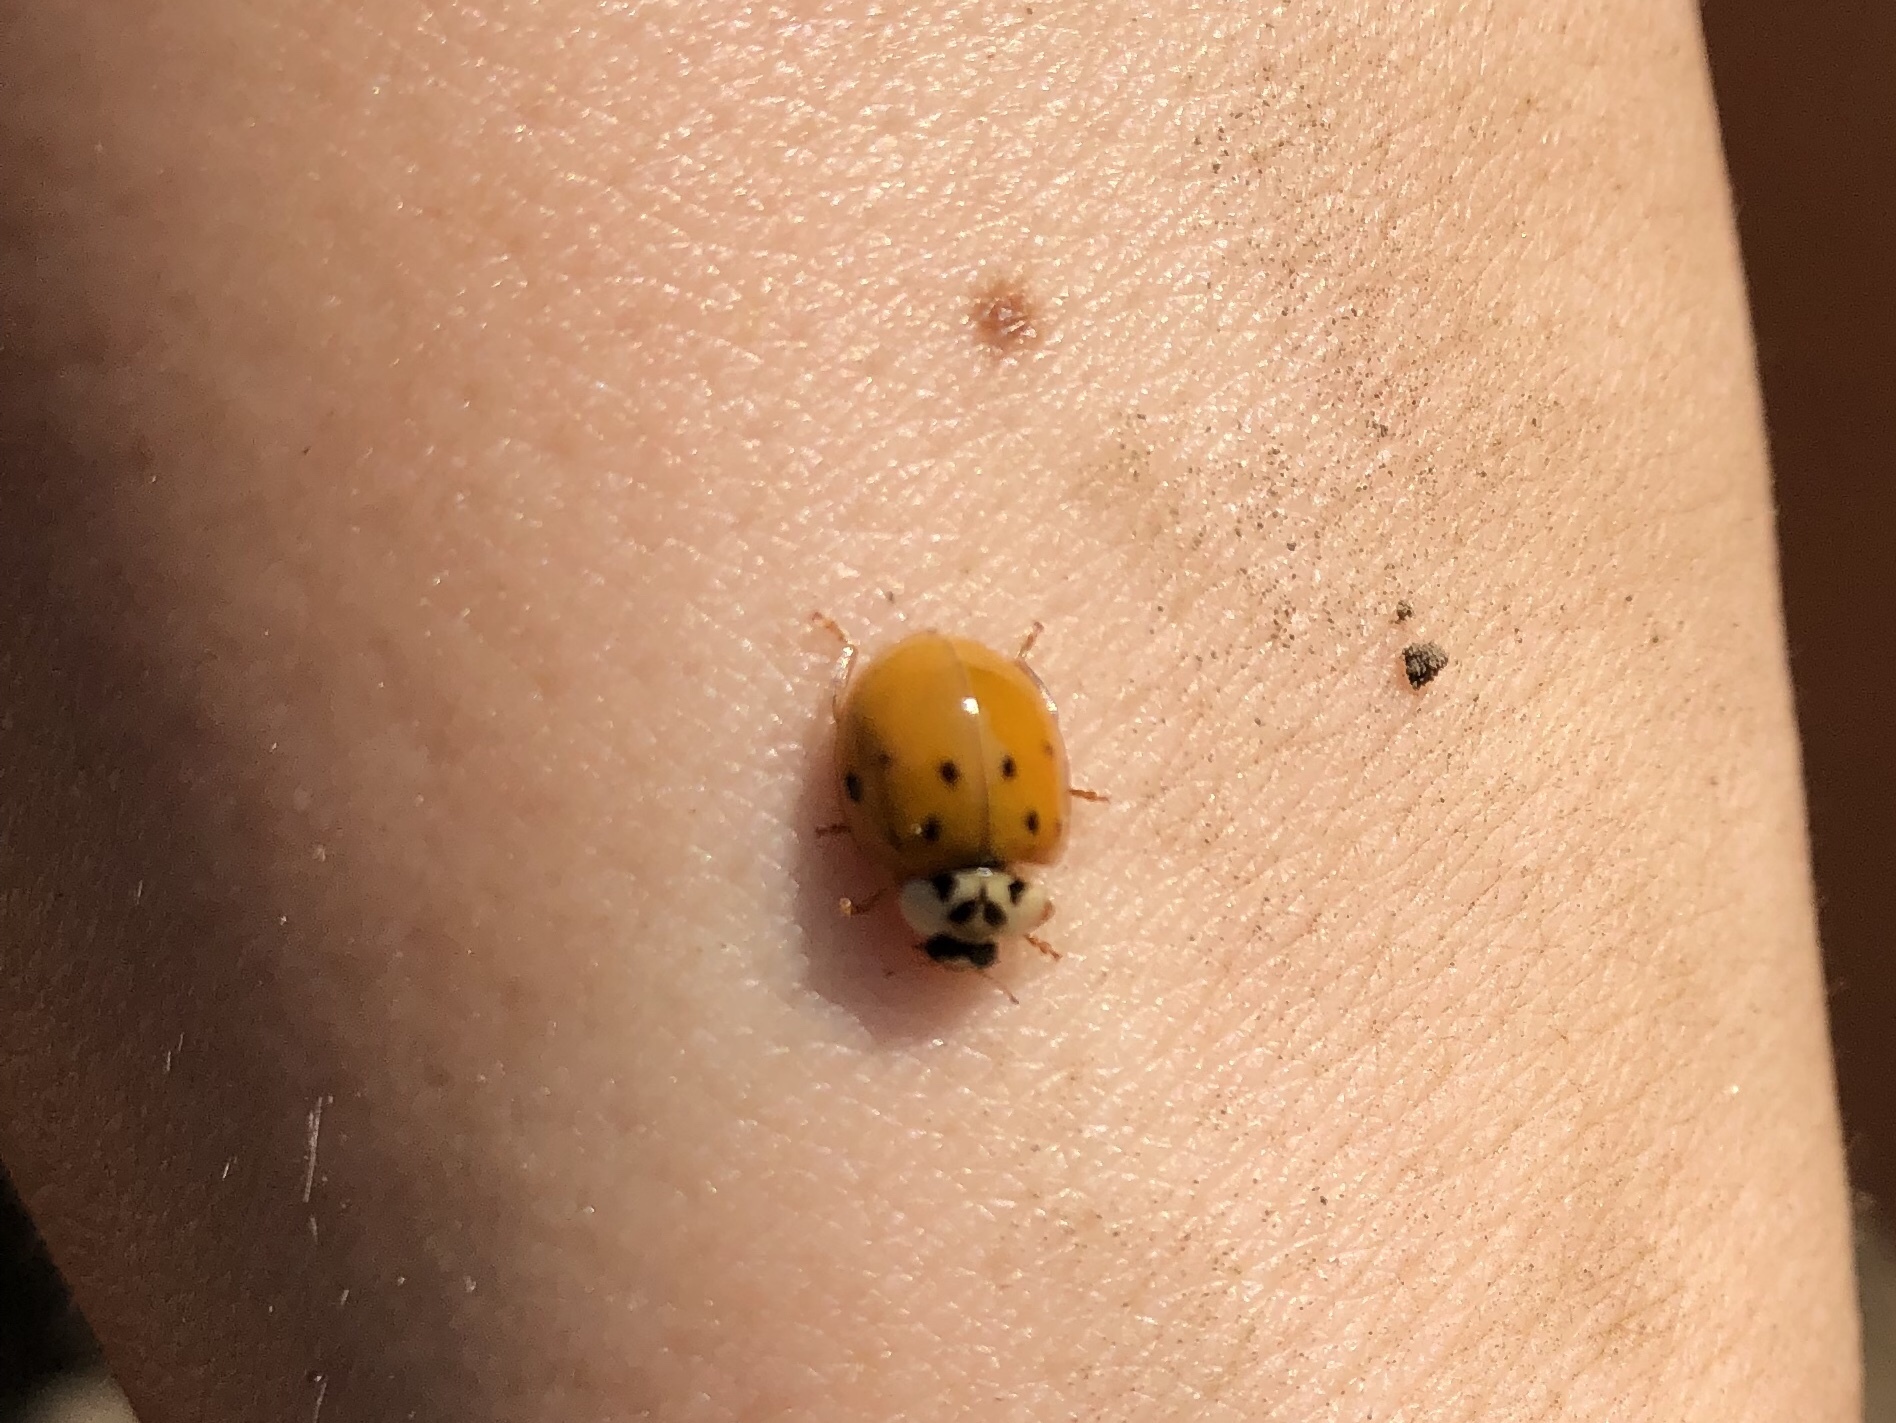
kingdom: Animalia
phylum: Arthropoda
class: Insecta
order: Coleoptera
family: Coccinellidae
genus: Harmonia
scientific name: Harmonia axyridis
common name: Harlequin ladybird
